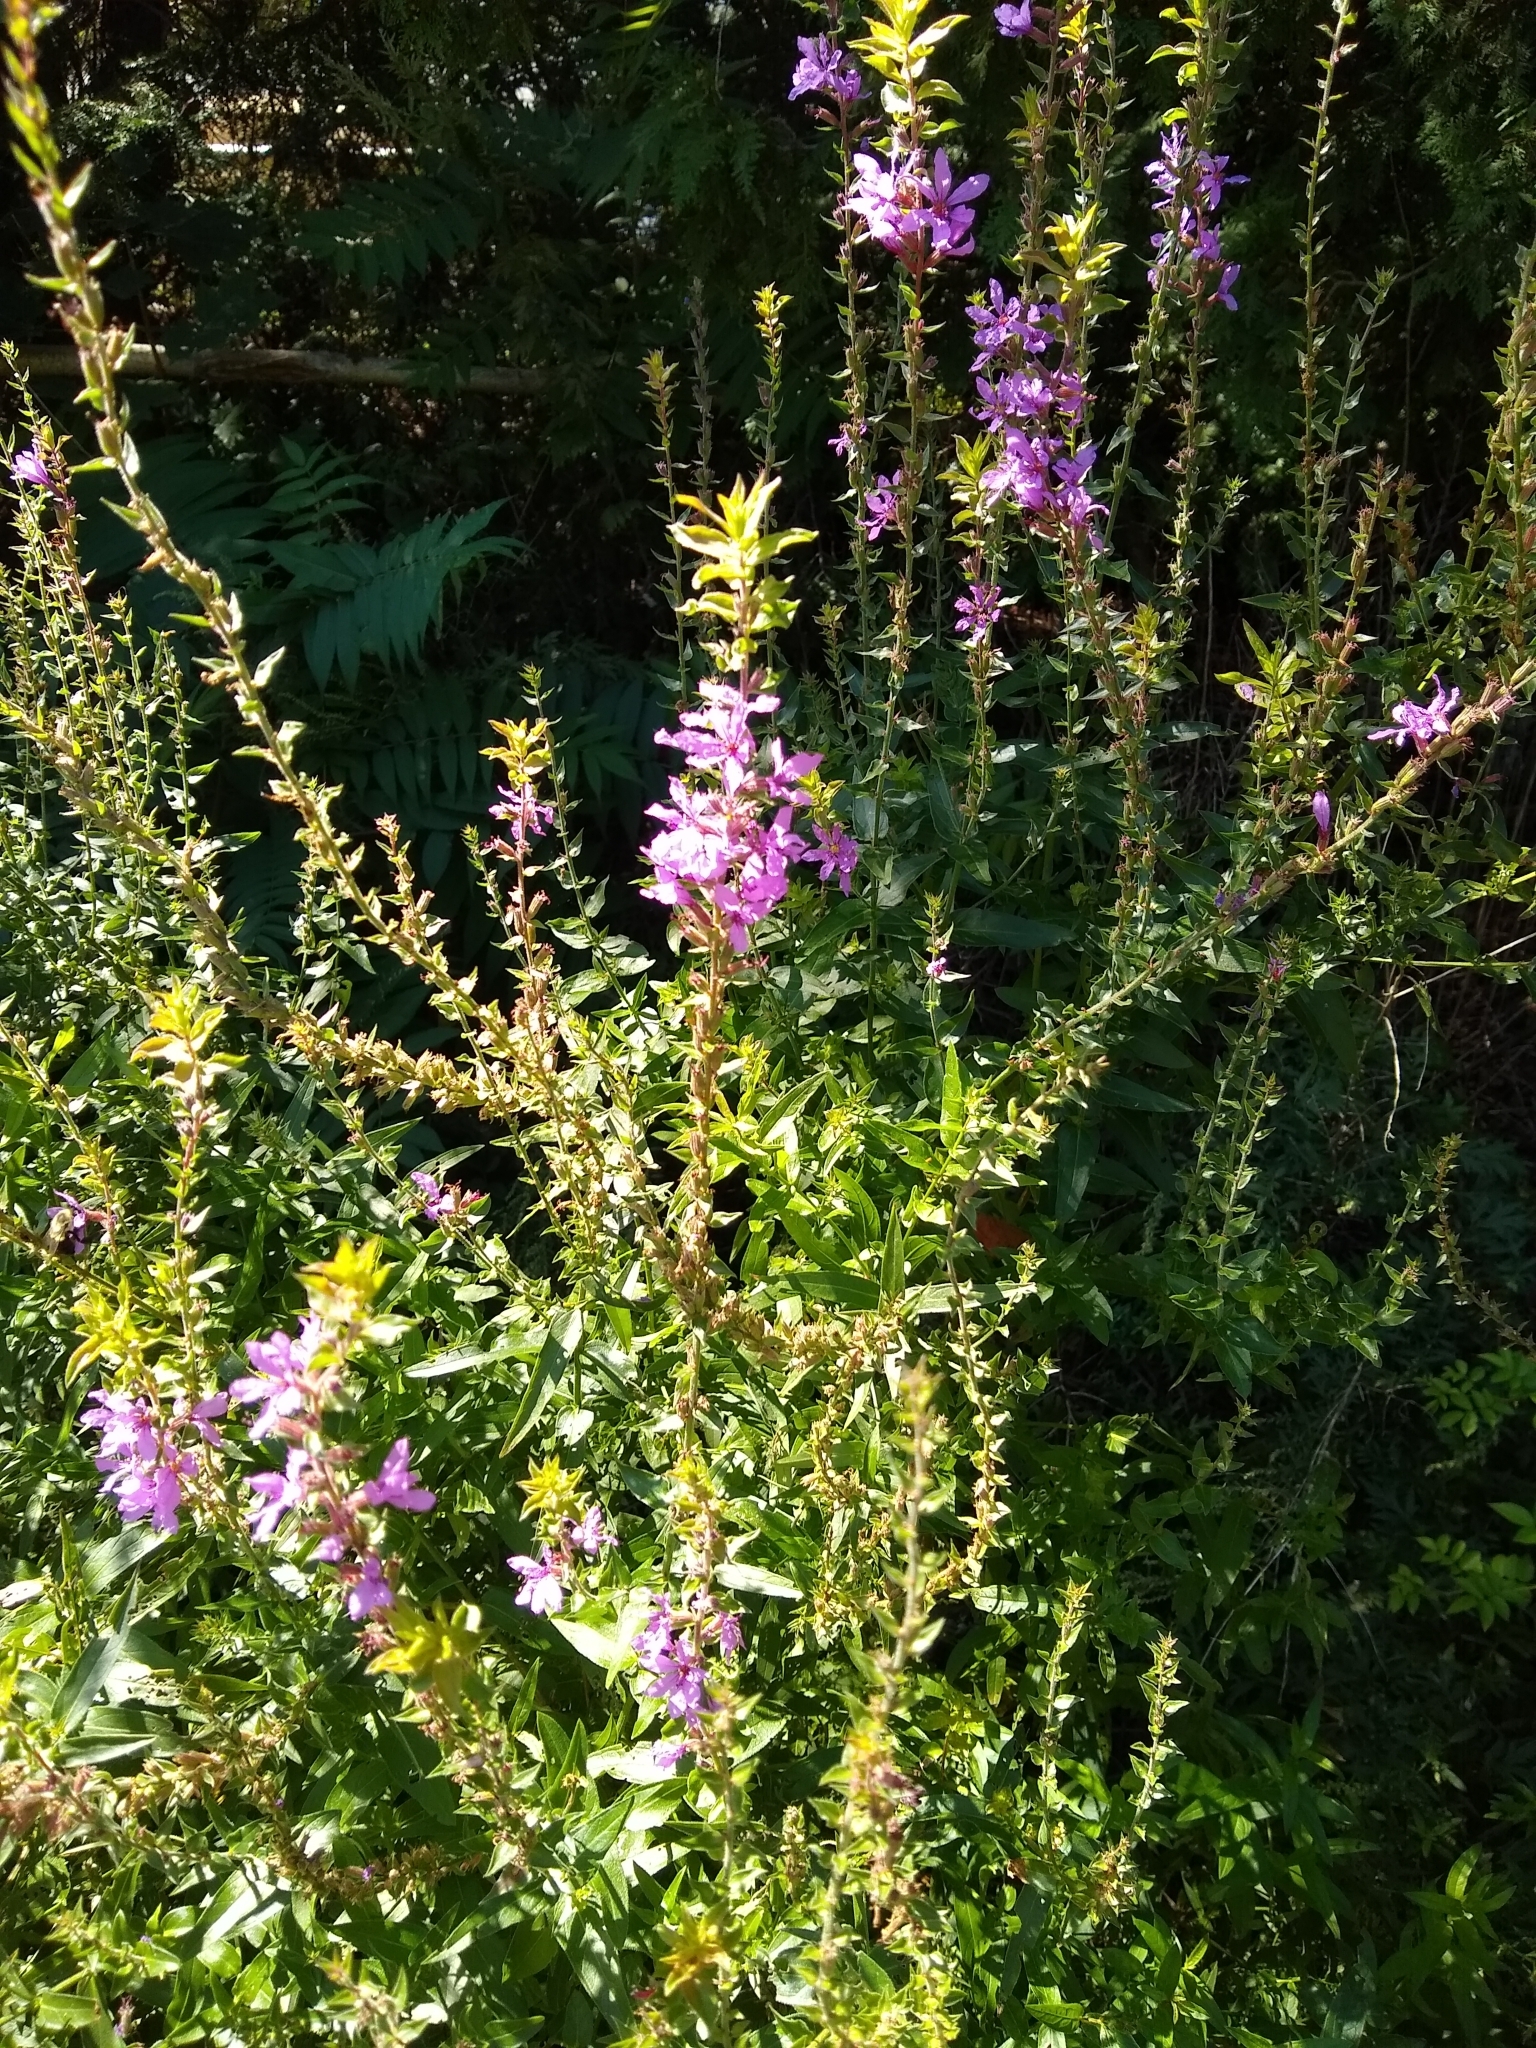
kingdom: Plantae
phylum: Tracheophyta
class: Magnoliopsida
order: Myrtales
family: Lythraceae
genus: Lythrum
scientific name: Lythrum salicaria
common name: Purple loosestrife
